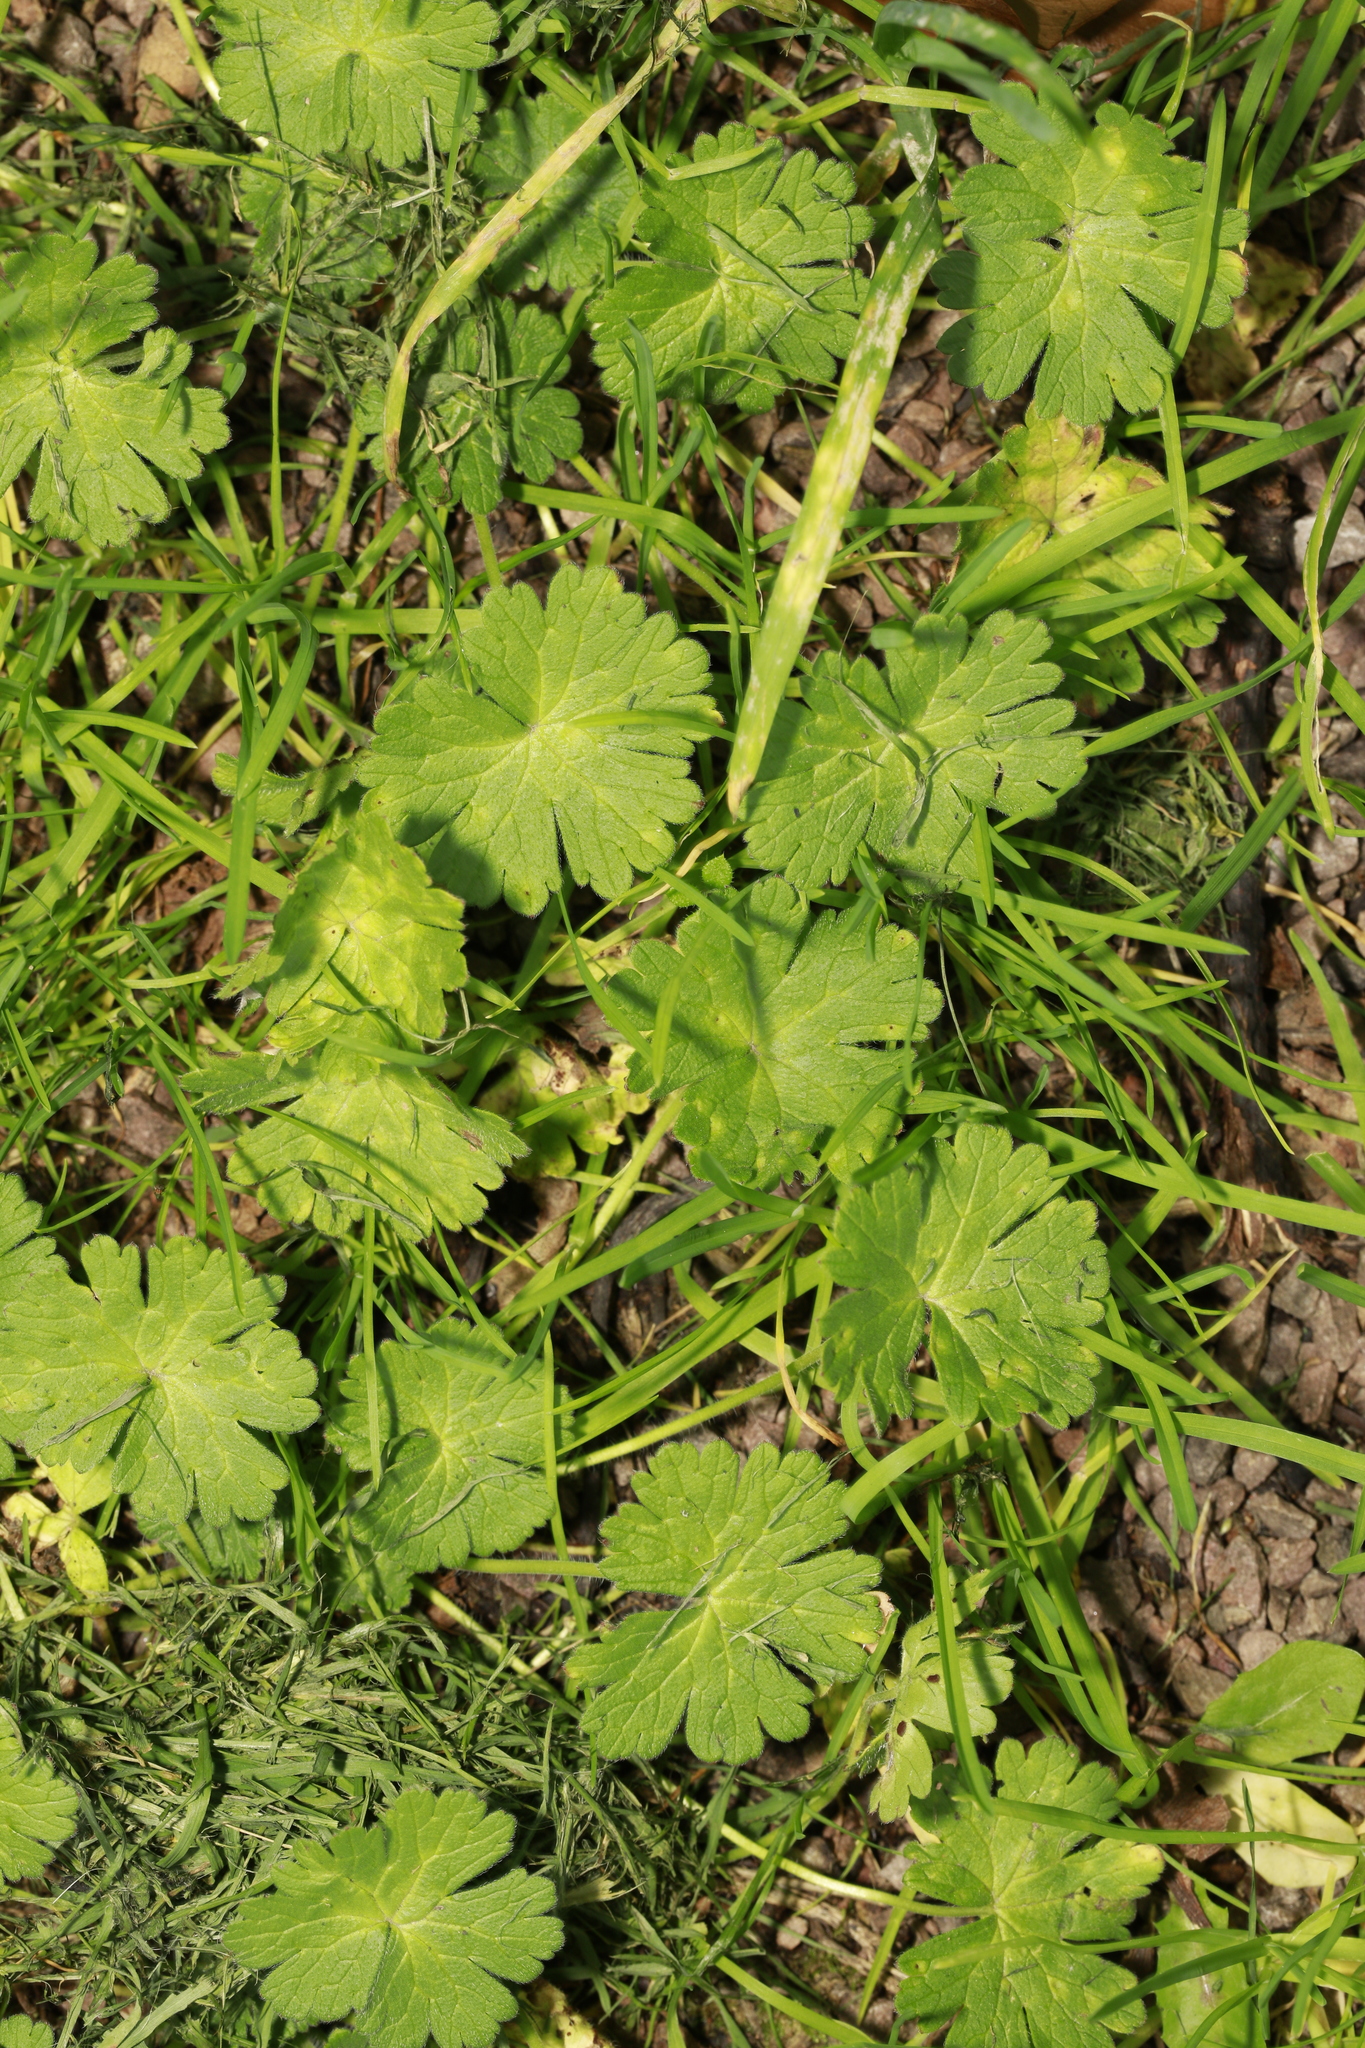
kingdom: Plantae
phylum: Tracheophyta
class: Magnoliopsida
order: Geraniales
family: Geraniaceae
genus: Geranium
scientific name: Geranium molle
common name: Dove's-foot crane's-bill
